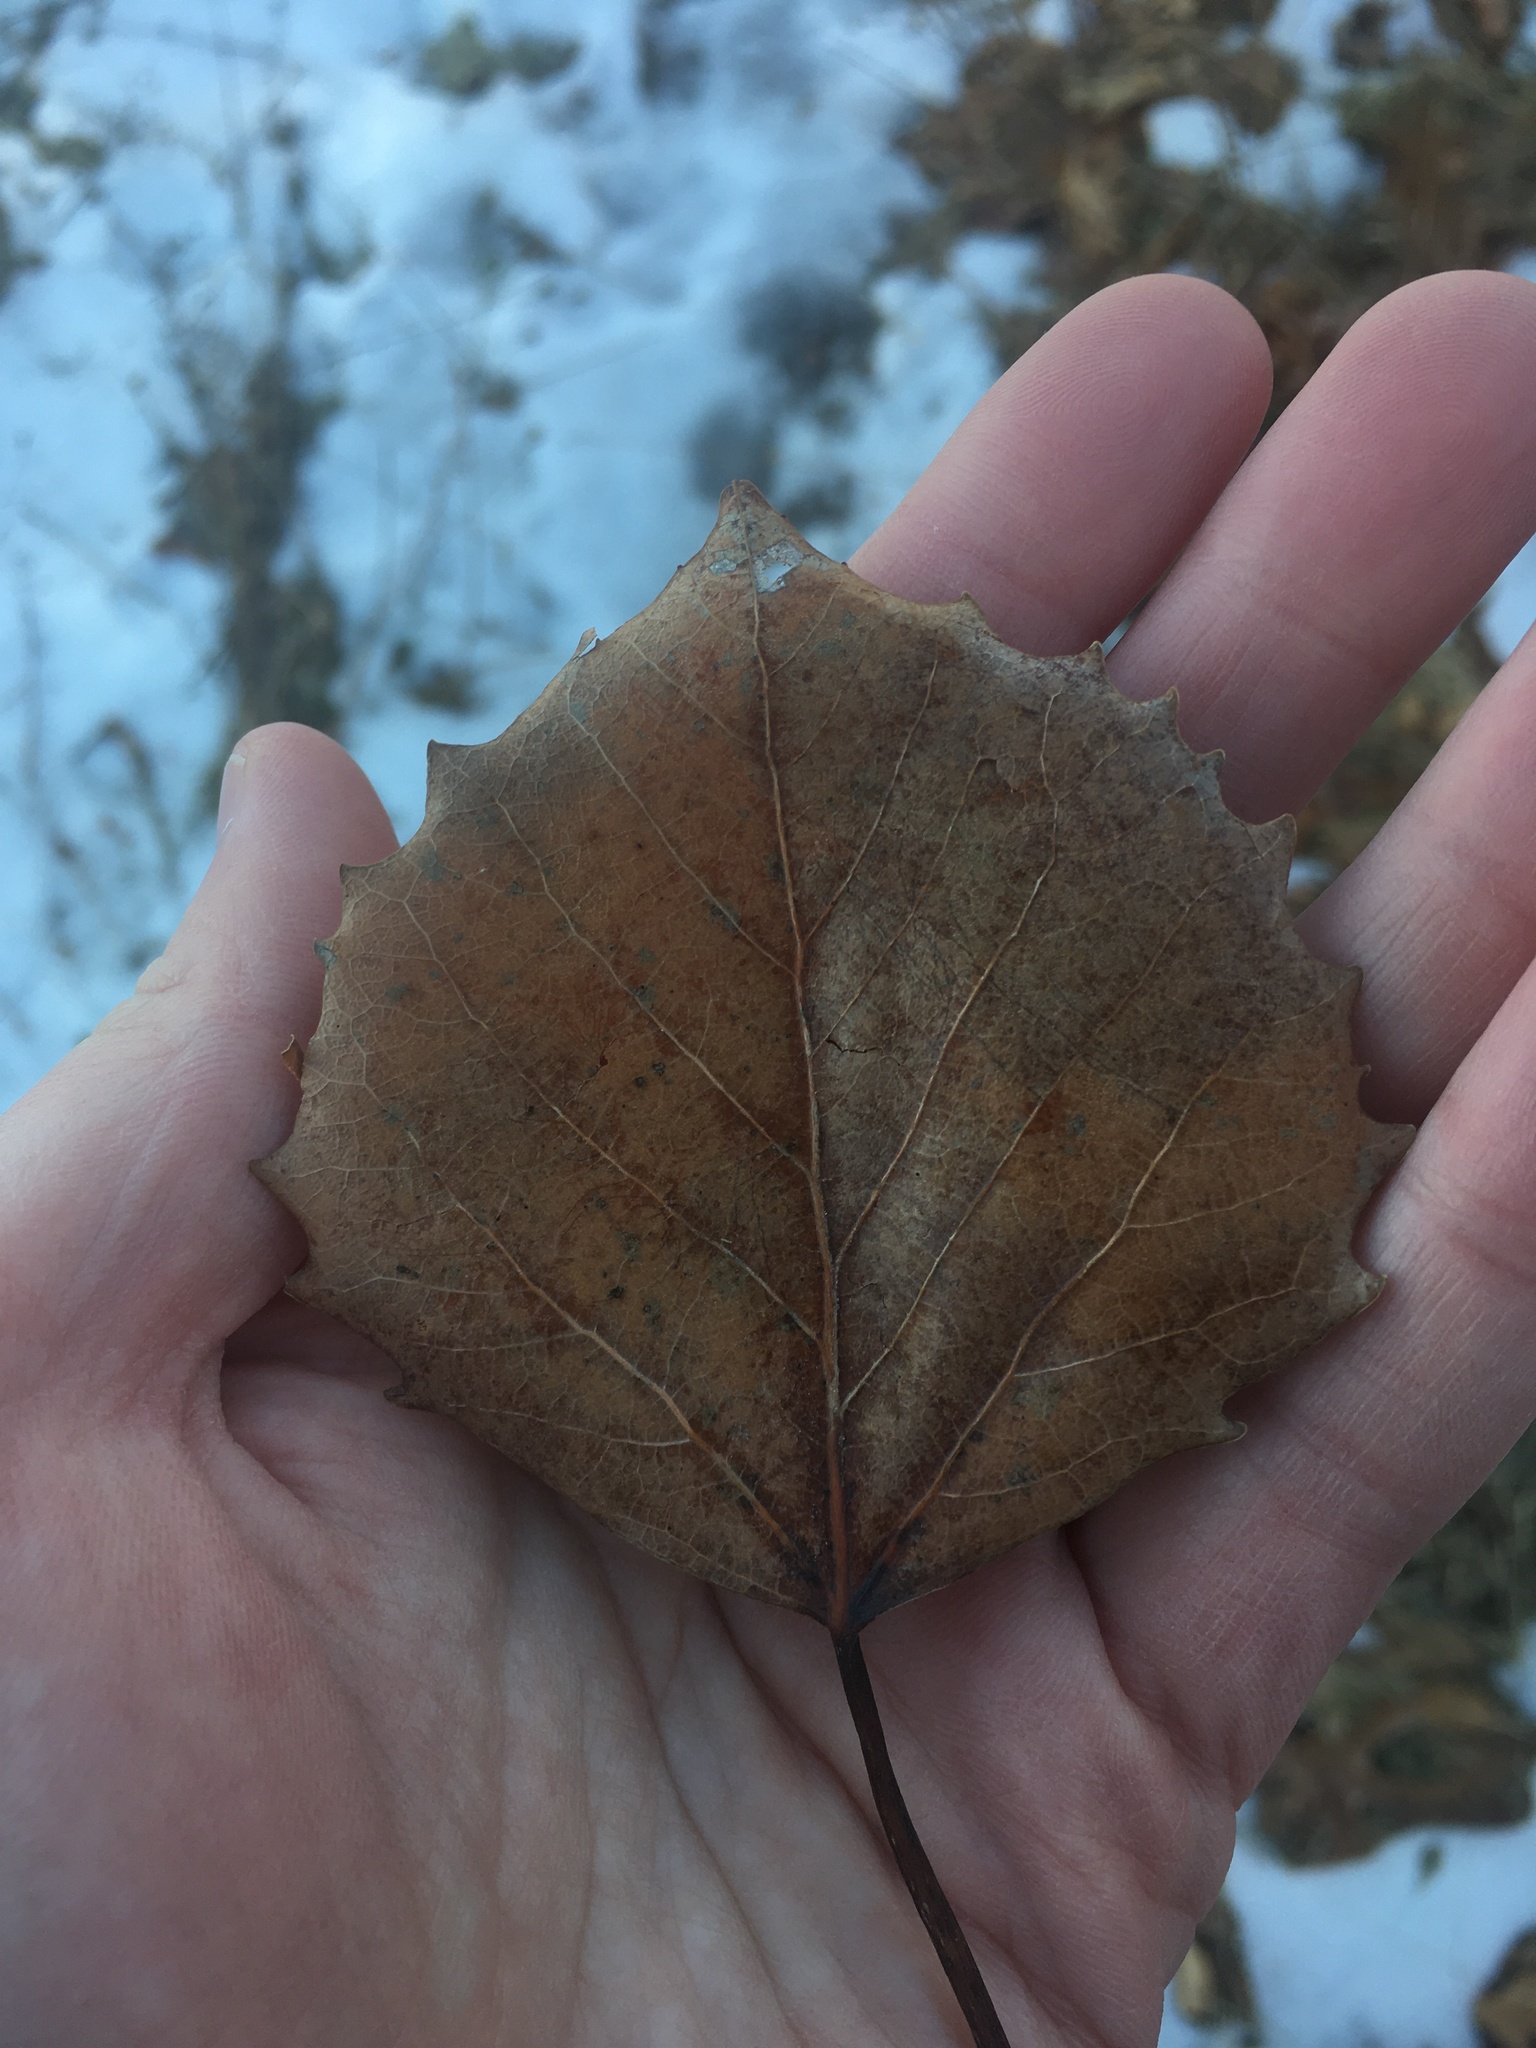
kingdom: Plantae
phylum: Tracheophyta
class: Magnoliopsida
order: Malpighiales
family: Salicaceae
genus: Populus
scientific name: Populus grandidentata
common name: Bigtooth aspen
